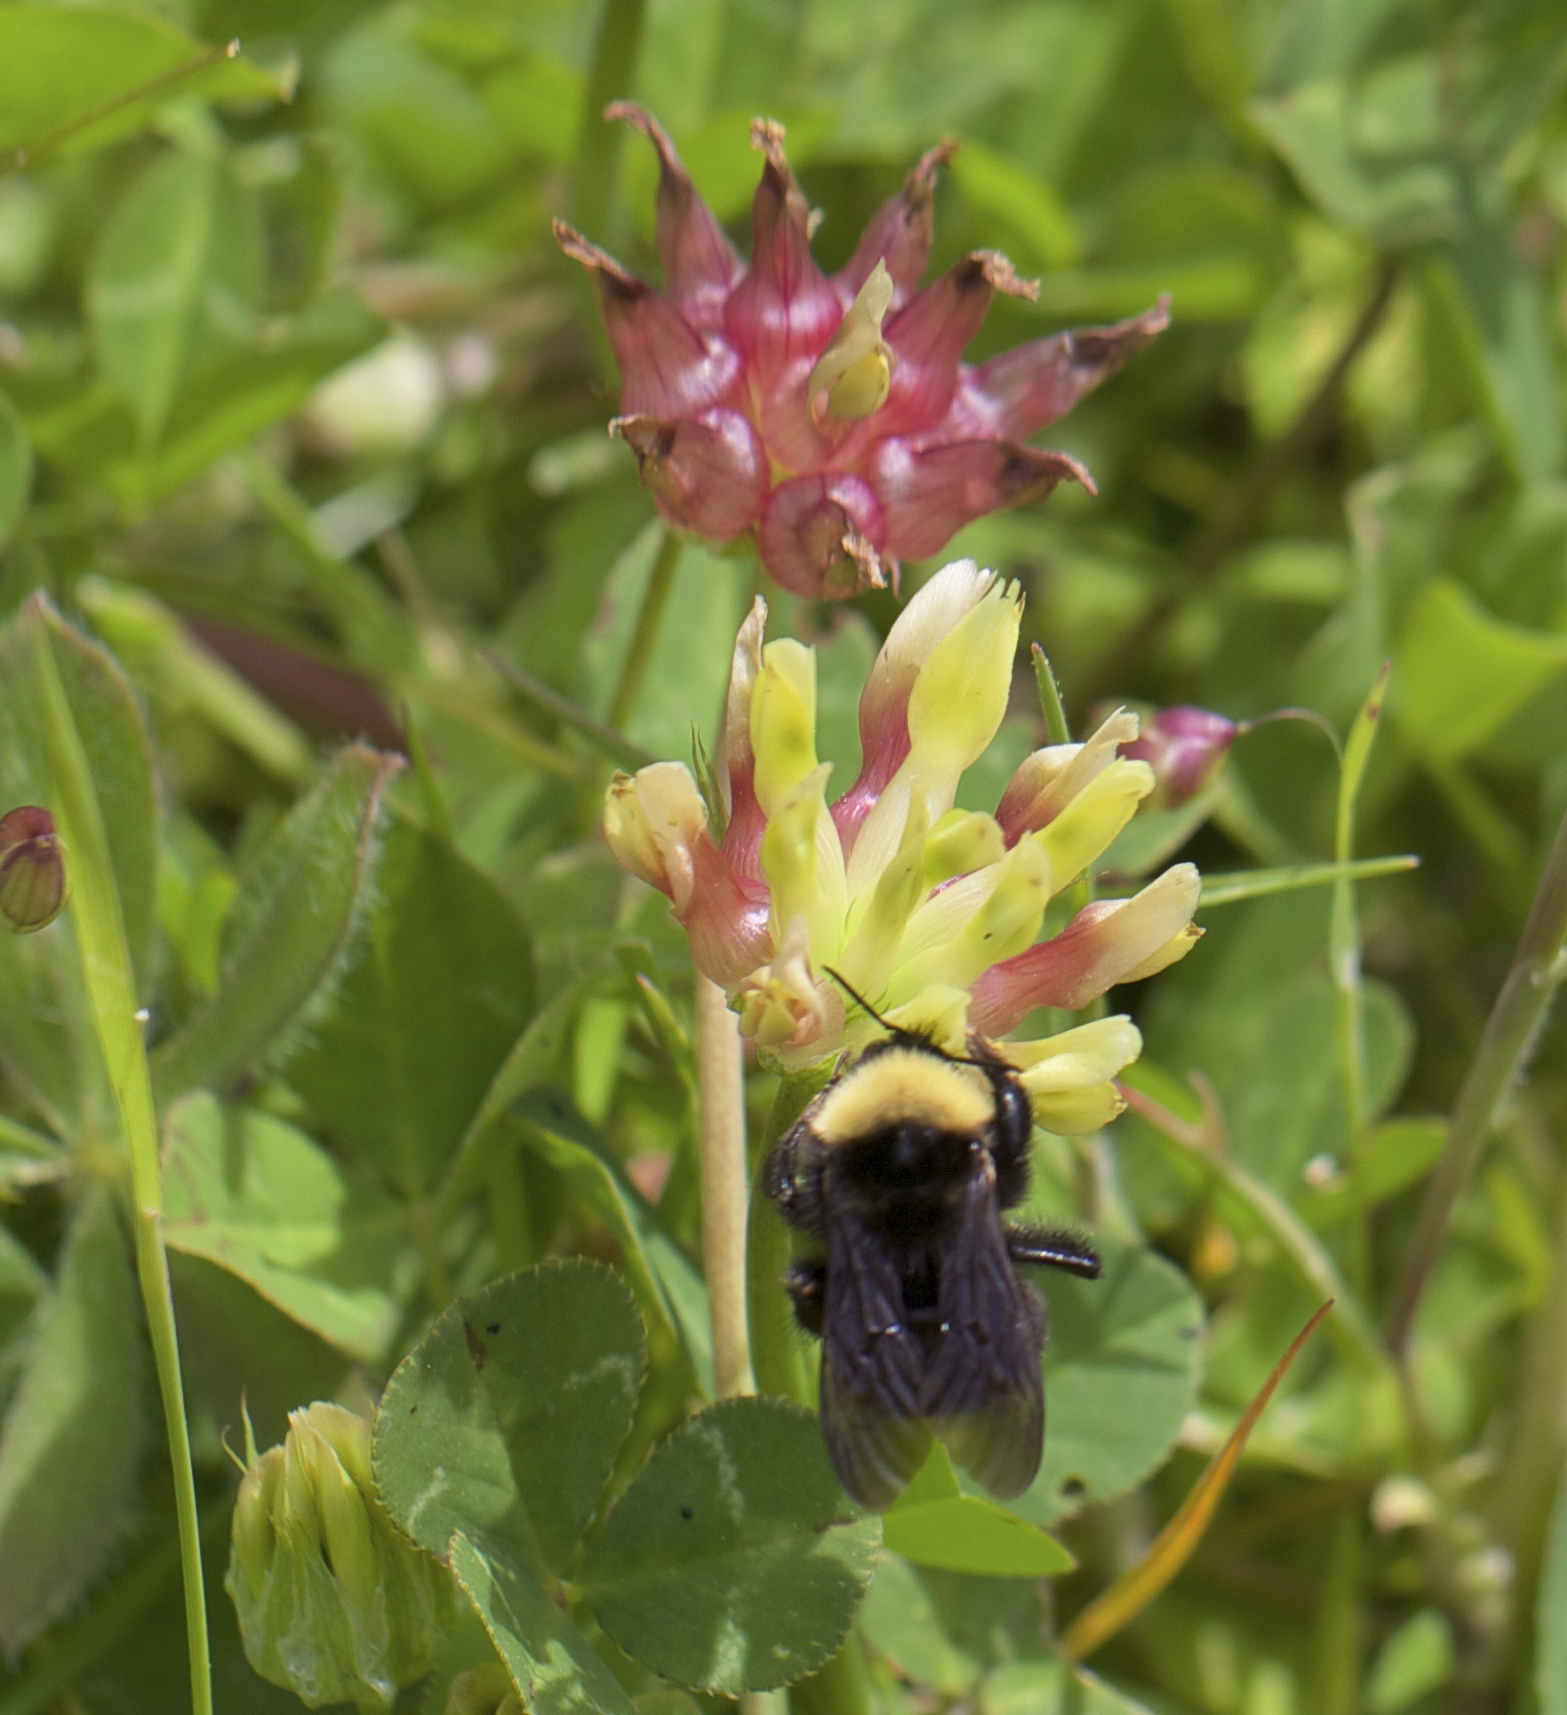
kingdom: Plantae
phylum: Tracheophyta
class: Magnoliopsida
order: Fabales
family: Fabaceae
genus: Trifolium
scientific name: Trifolium fucatum
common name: Puff clover
